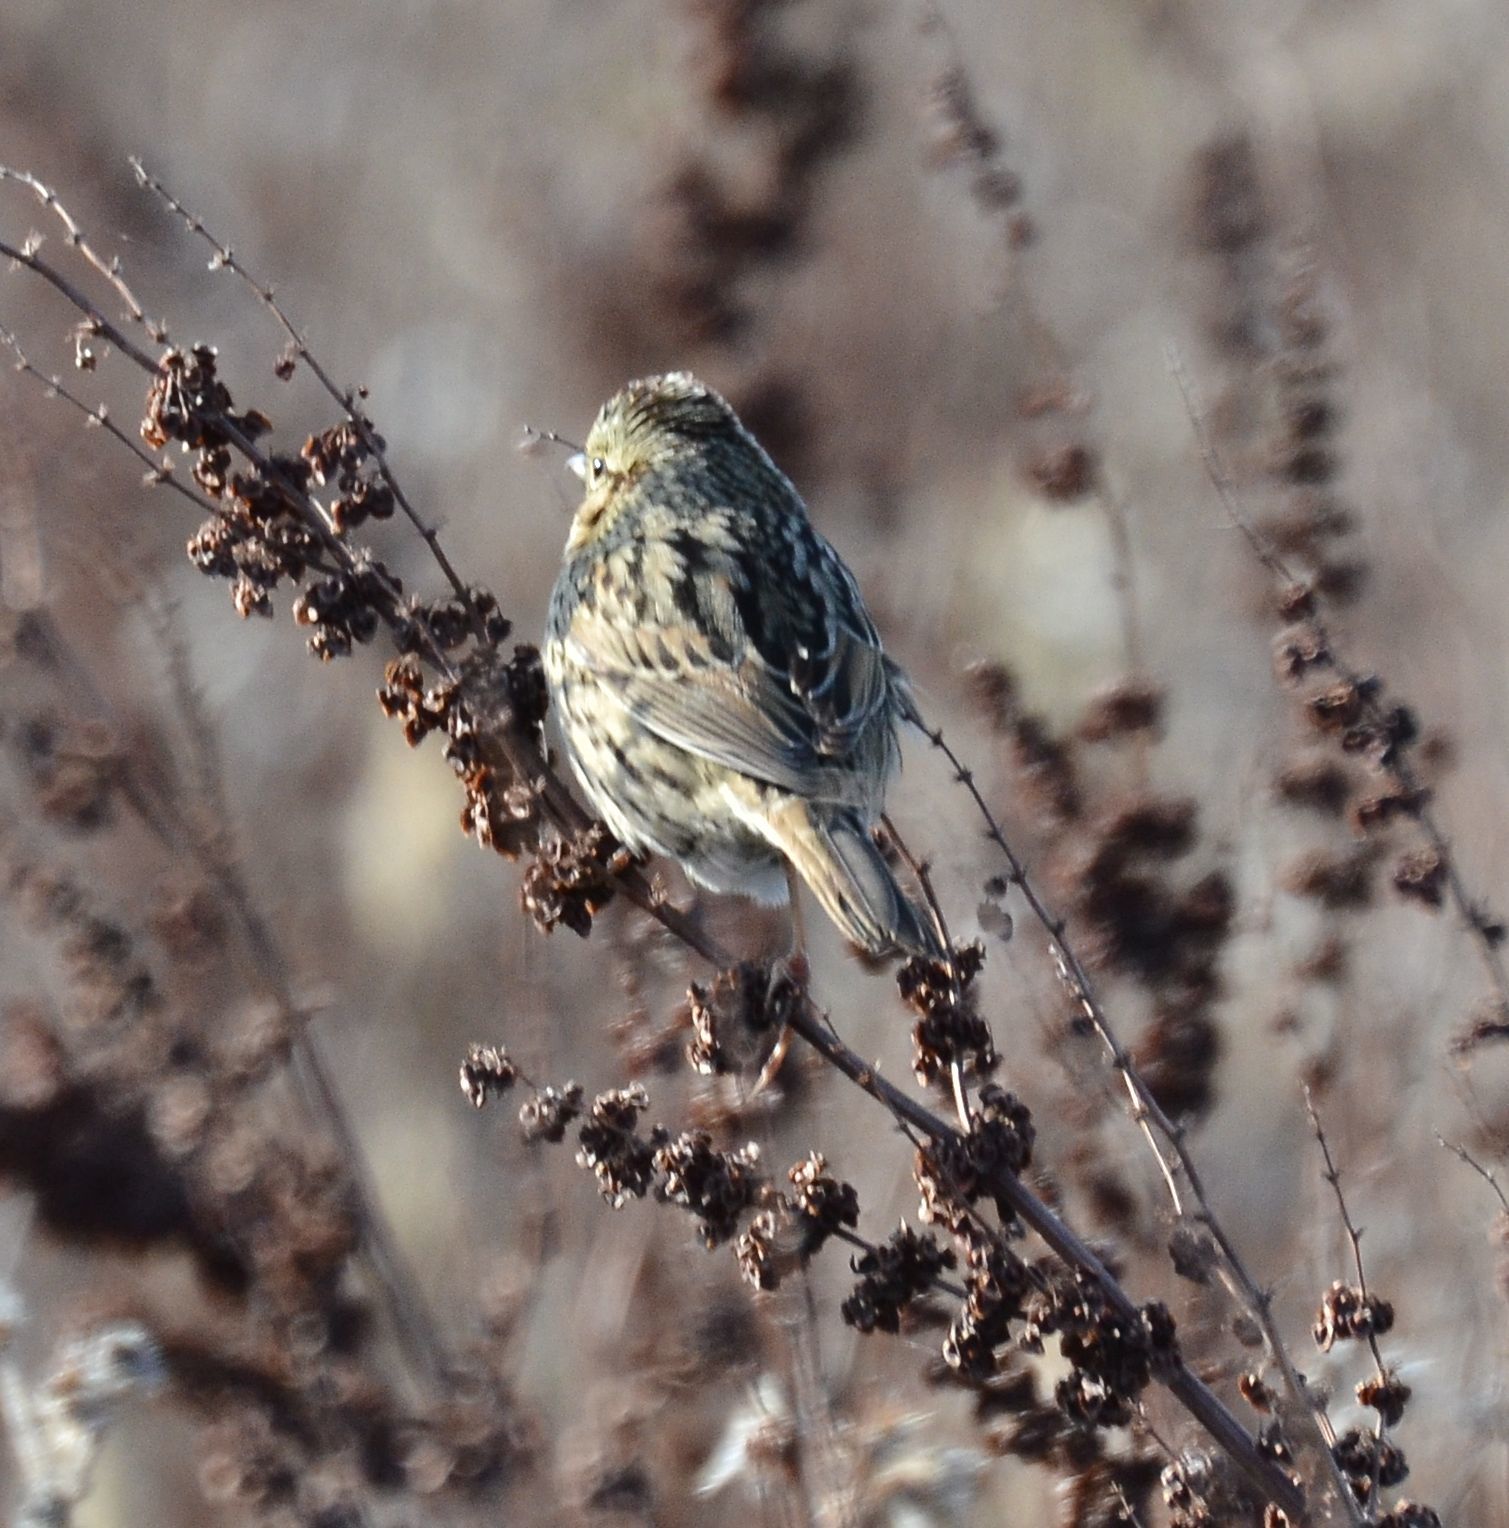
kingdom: Animalia
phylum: Chordata
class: Aves
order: Passeriformes
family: Passerellidae
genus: Melospiza
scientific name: Melospiza lincolnii
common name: Lincoln's sparrow
